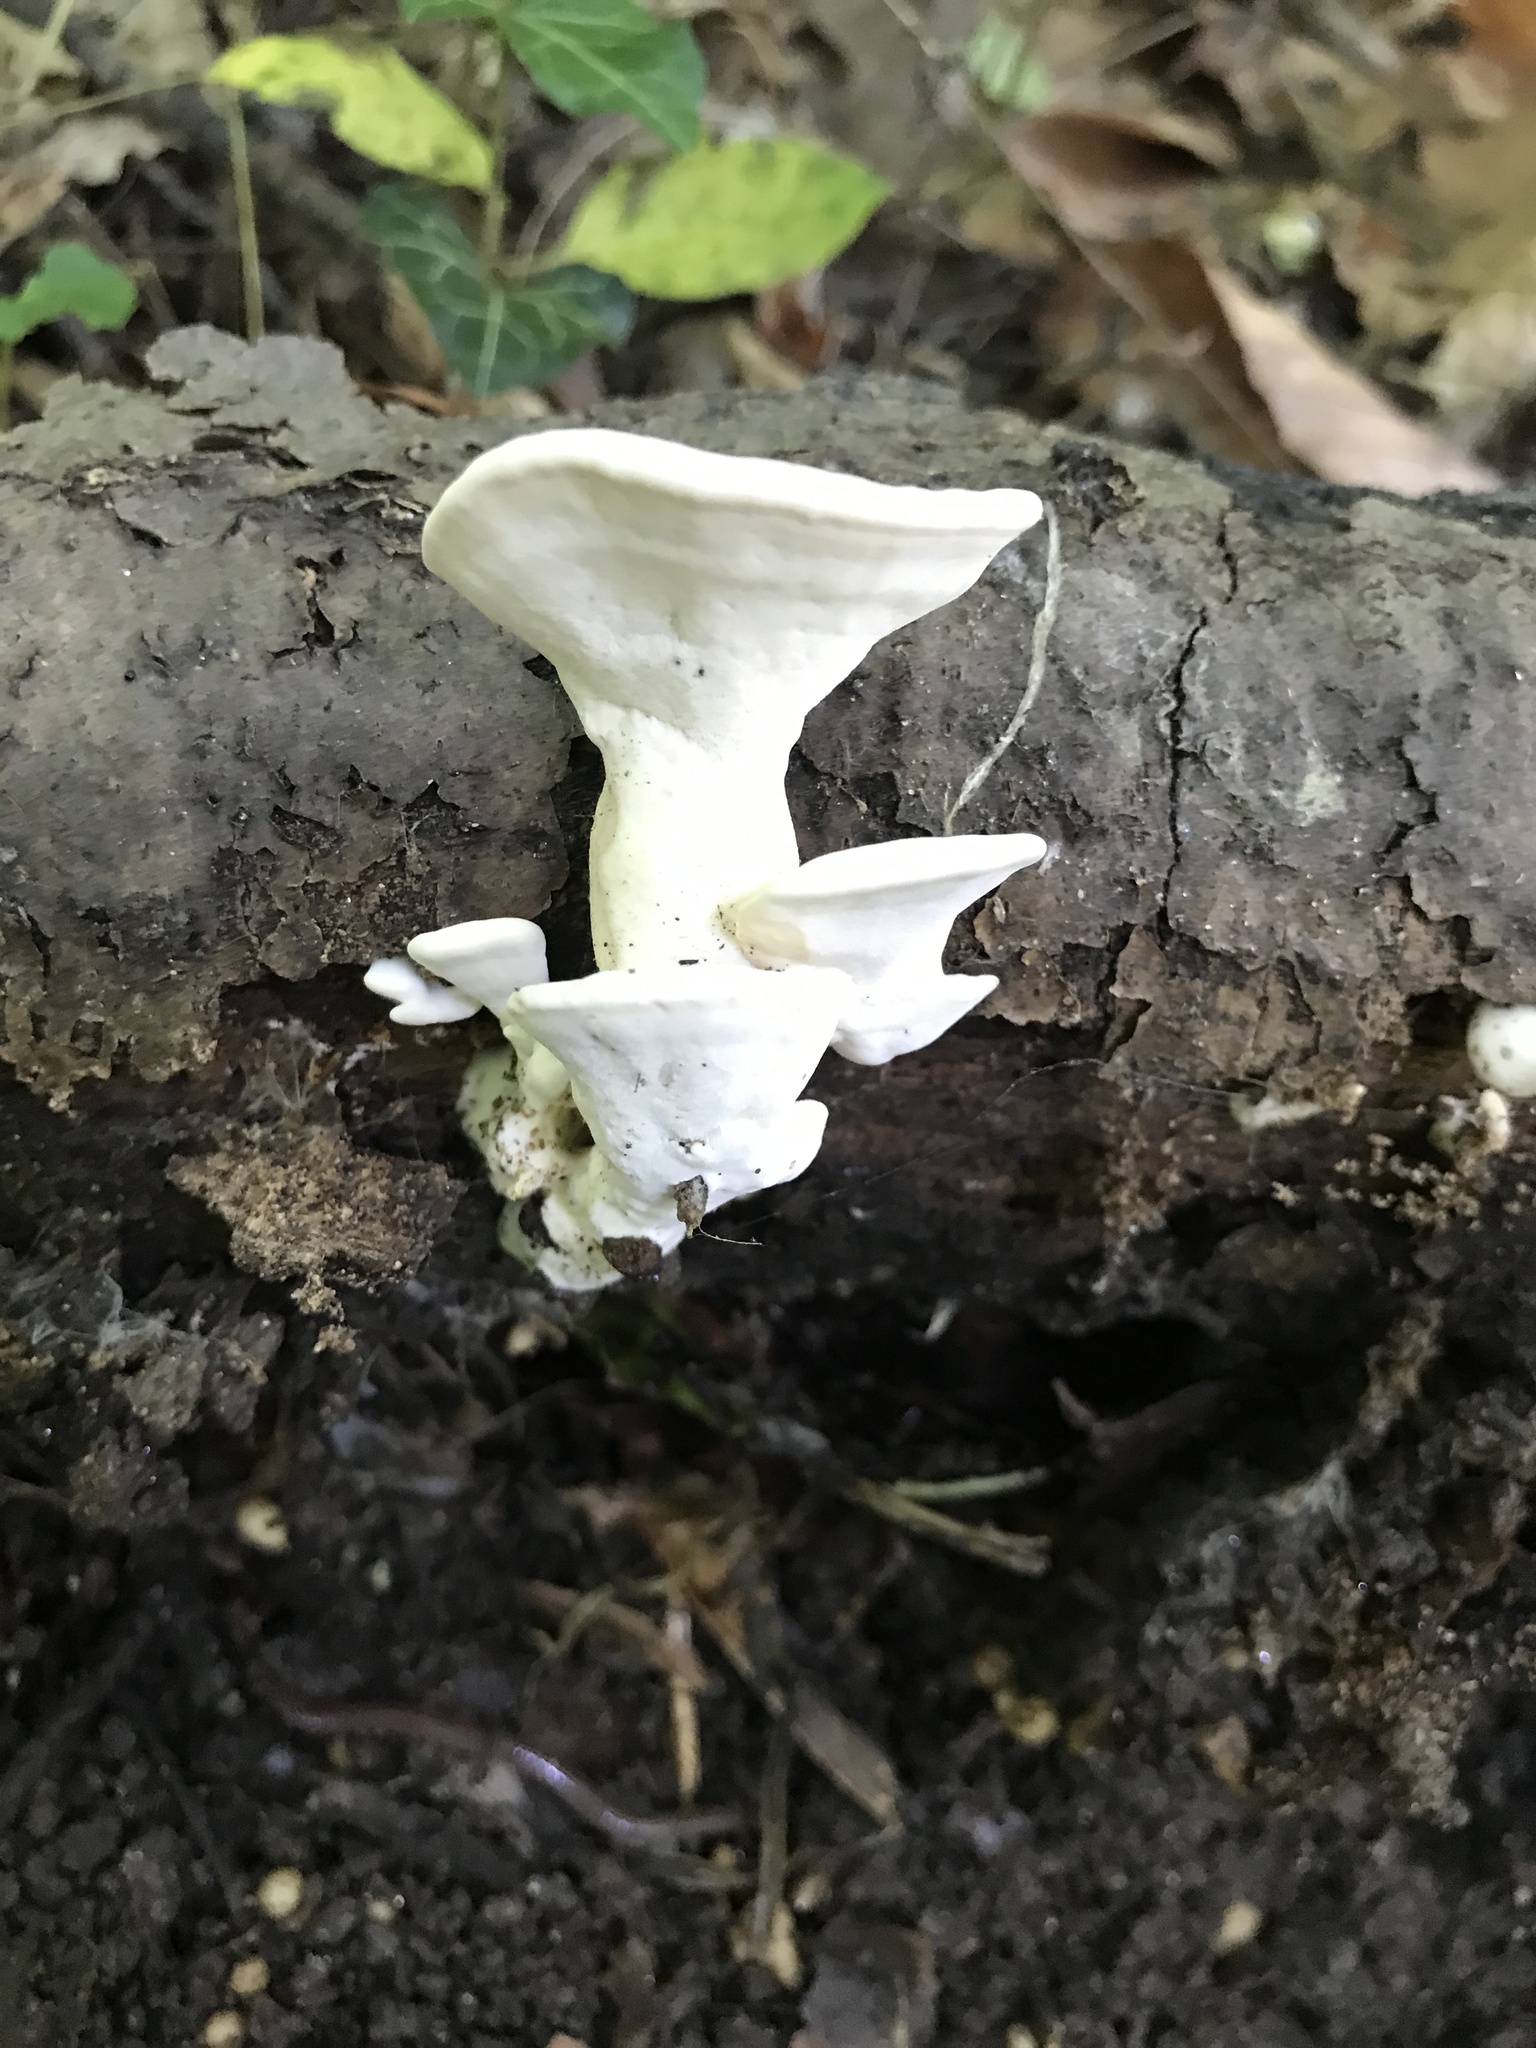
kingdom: Fungi
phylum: Basidiomycota
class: Agaricomycetes
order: Polyporales
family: Steccherinaceae
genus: Loweomyces
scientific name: Loweomyces fractipes
